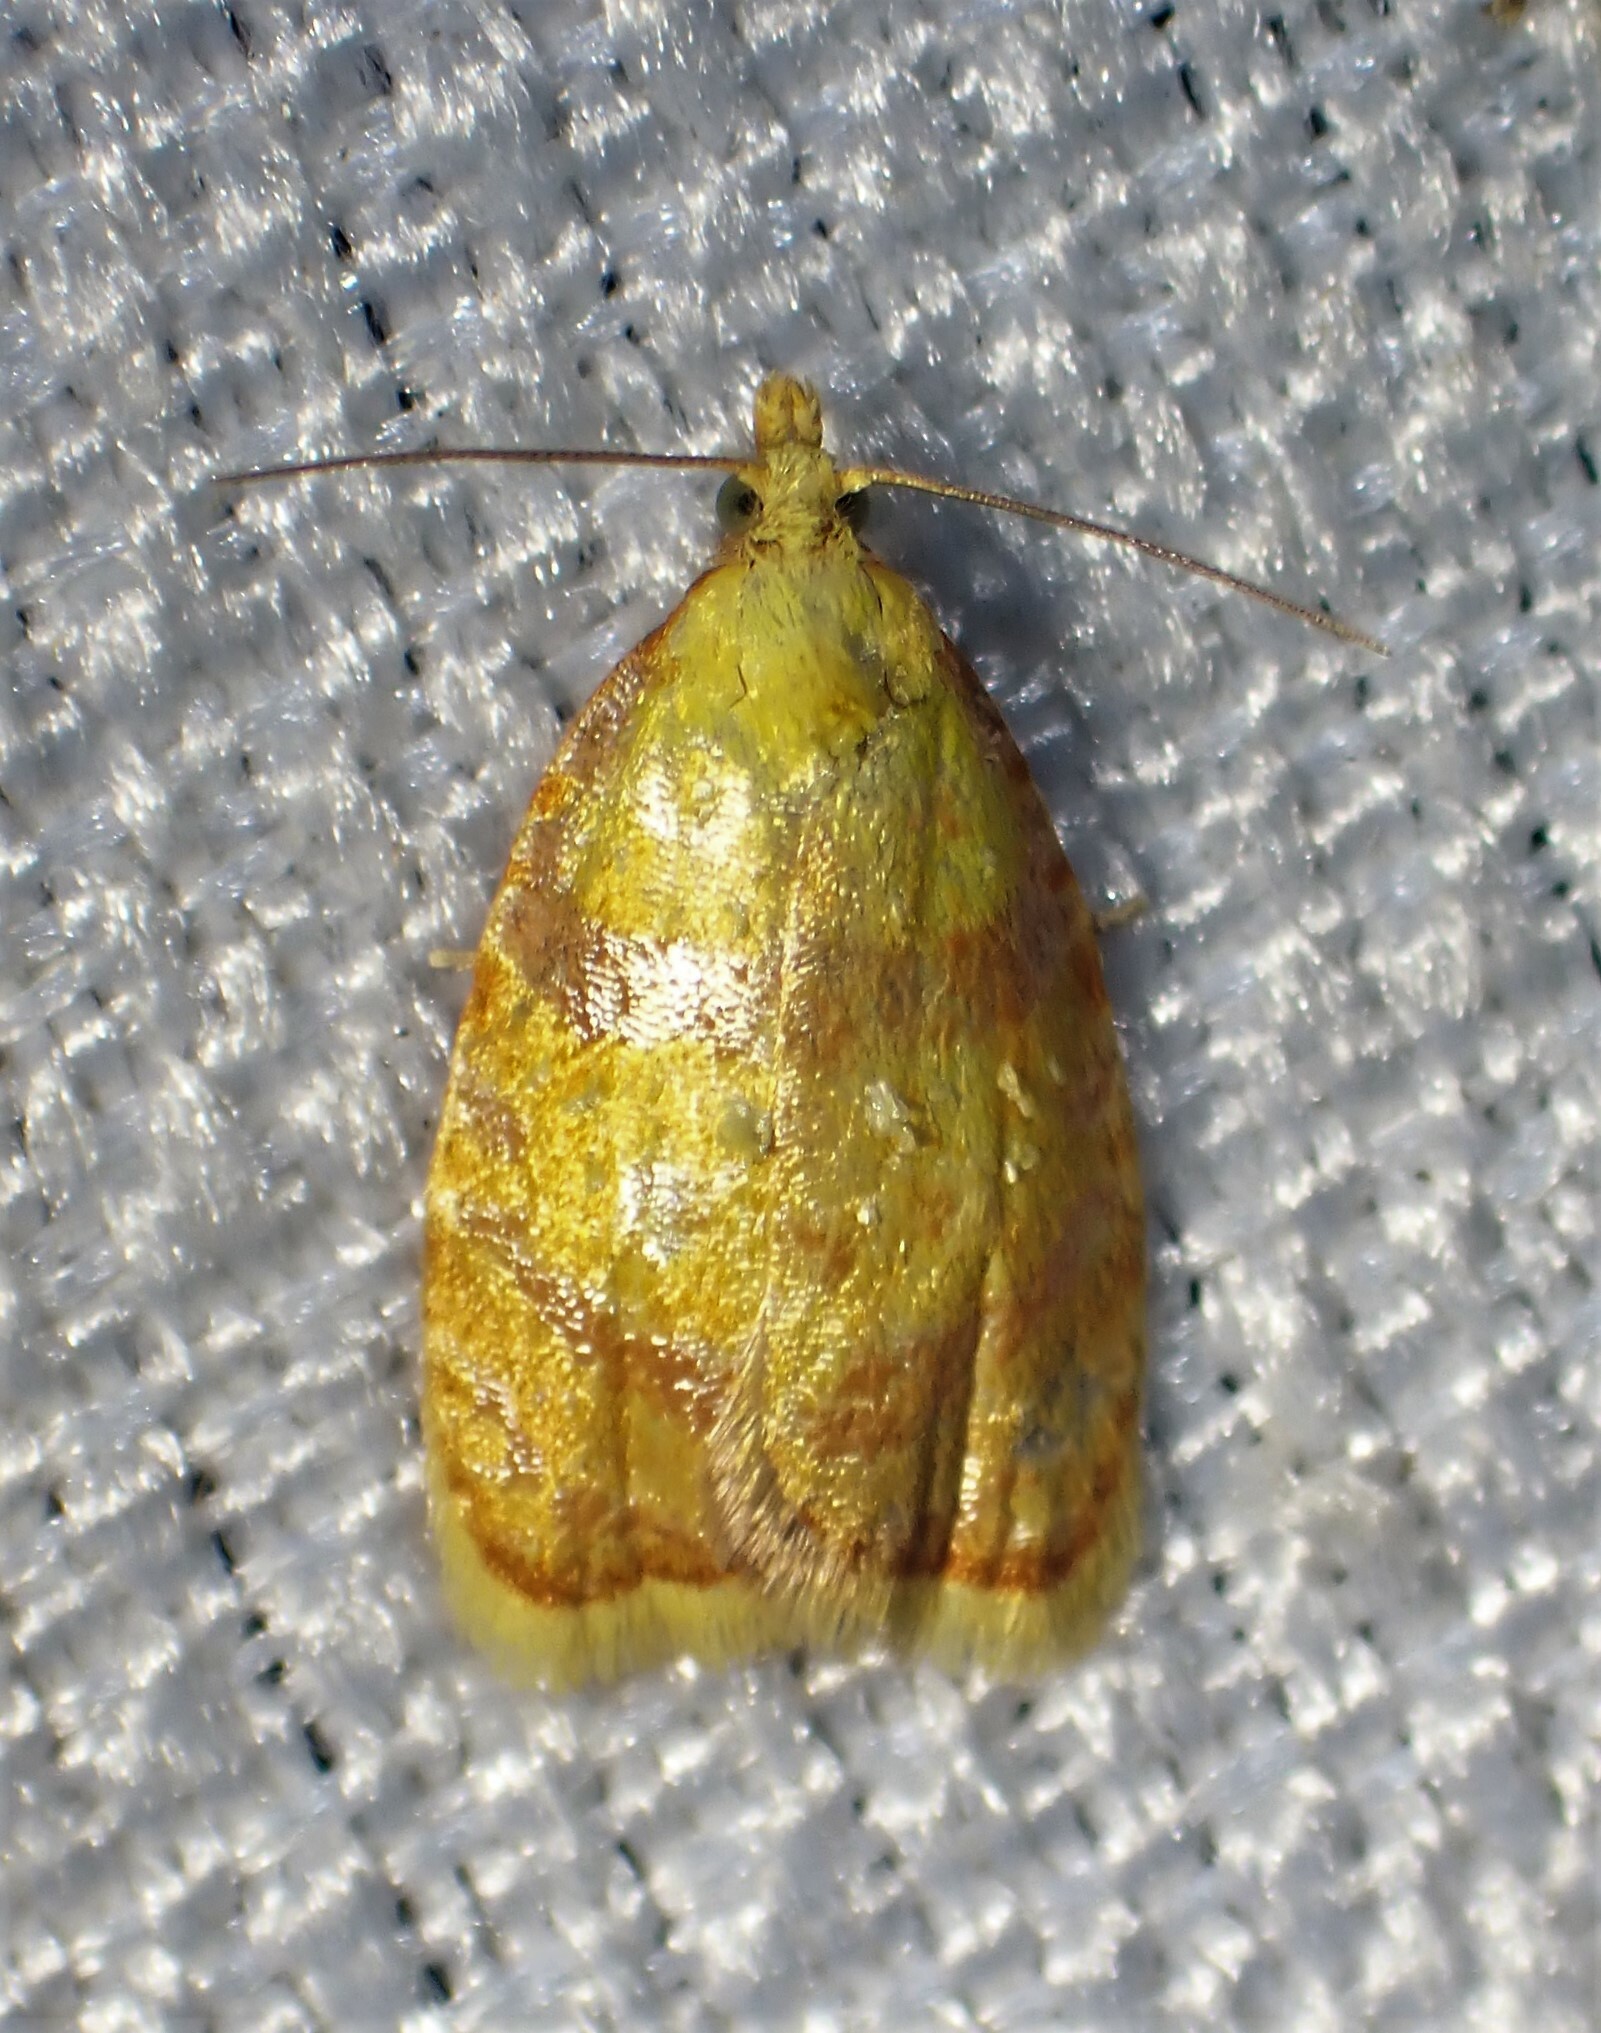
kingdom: Animalia
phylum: Arthropoda
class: Insecta
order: Lepidoptera
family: Tortricidae
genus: Acleris
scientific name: Acleris curvalana
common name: Blueberry leaftier moth
